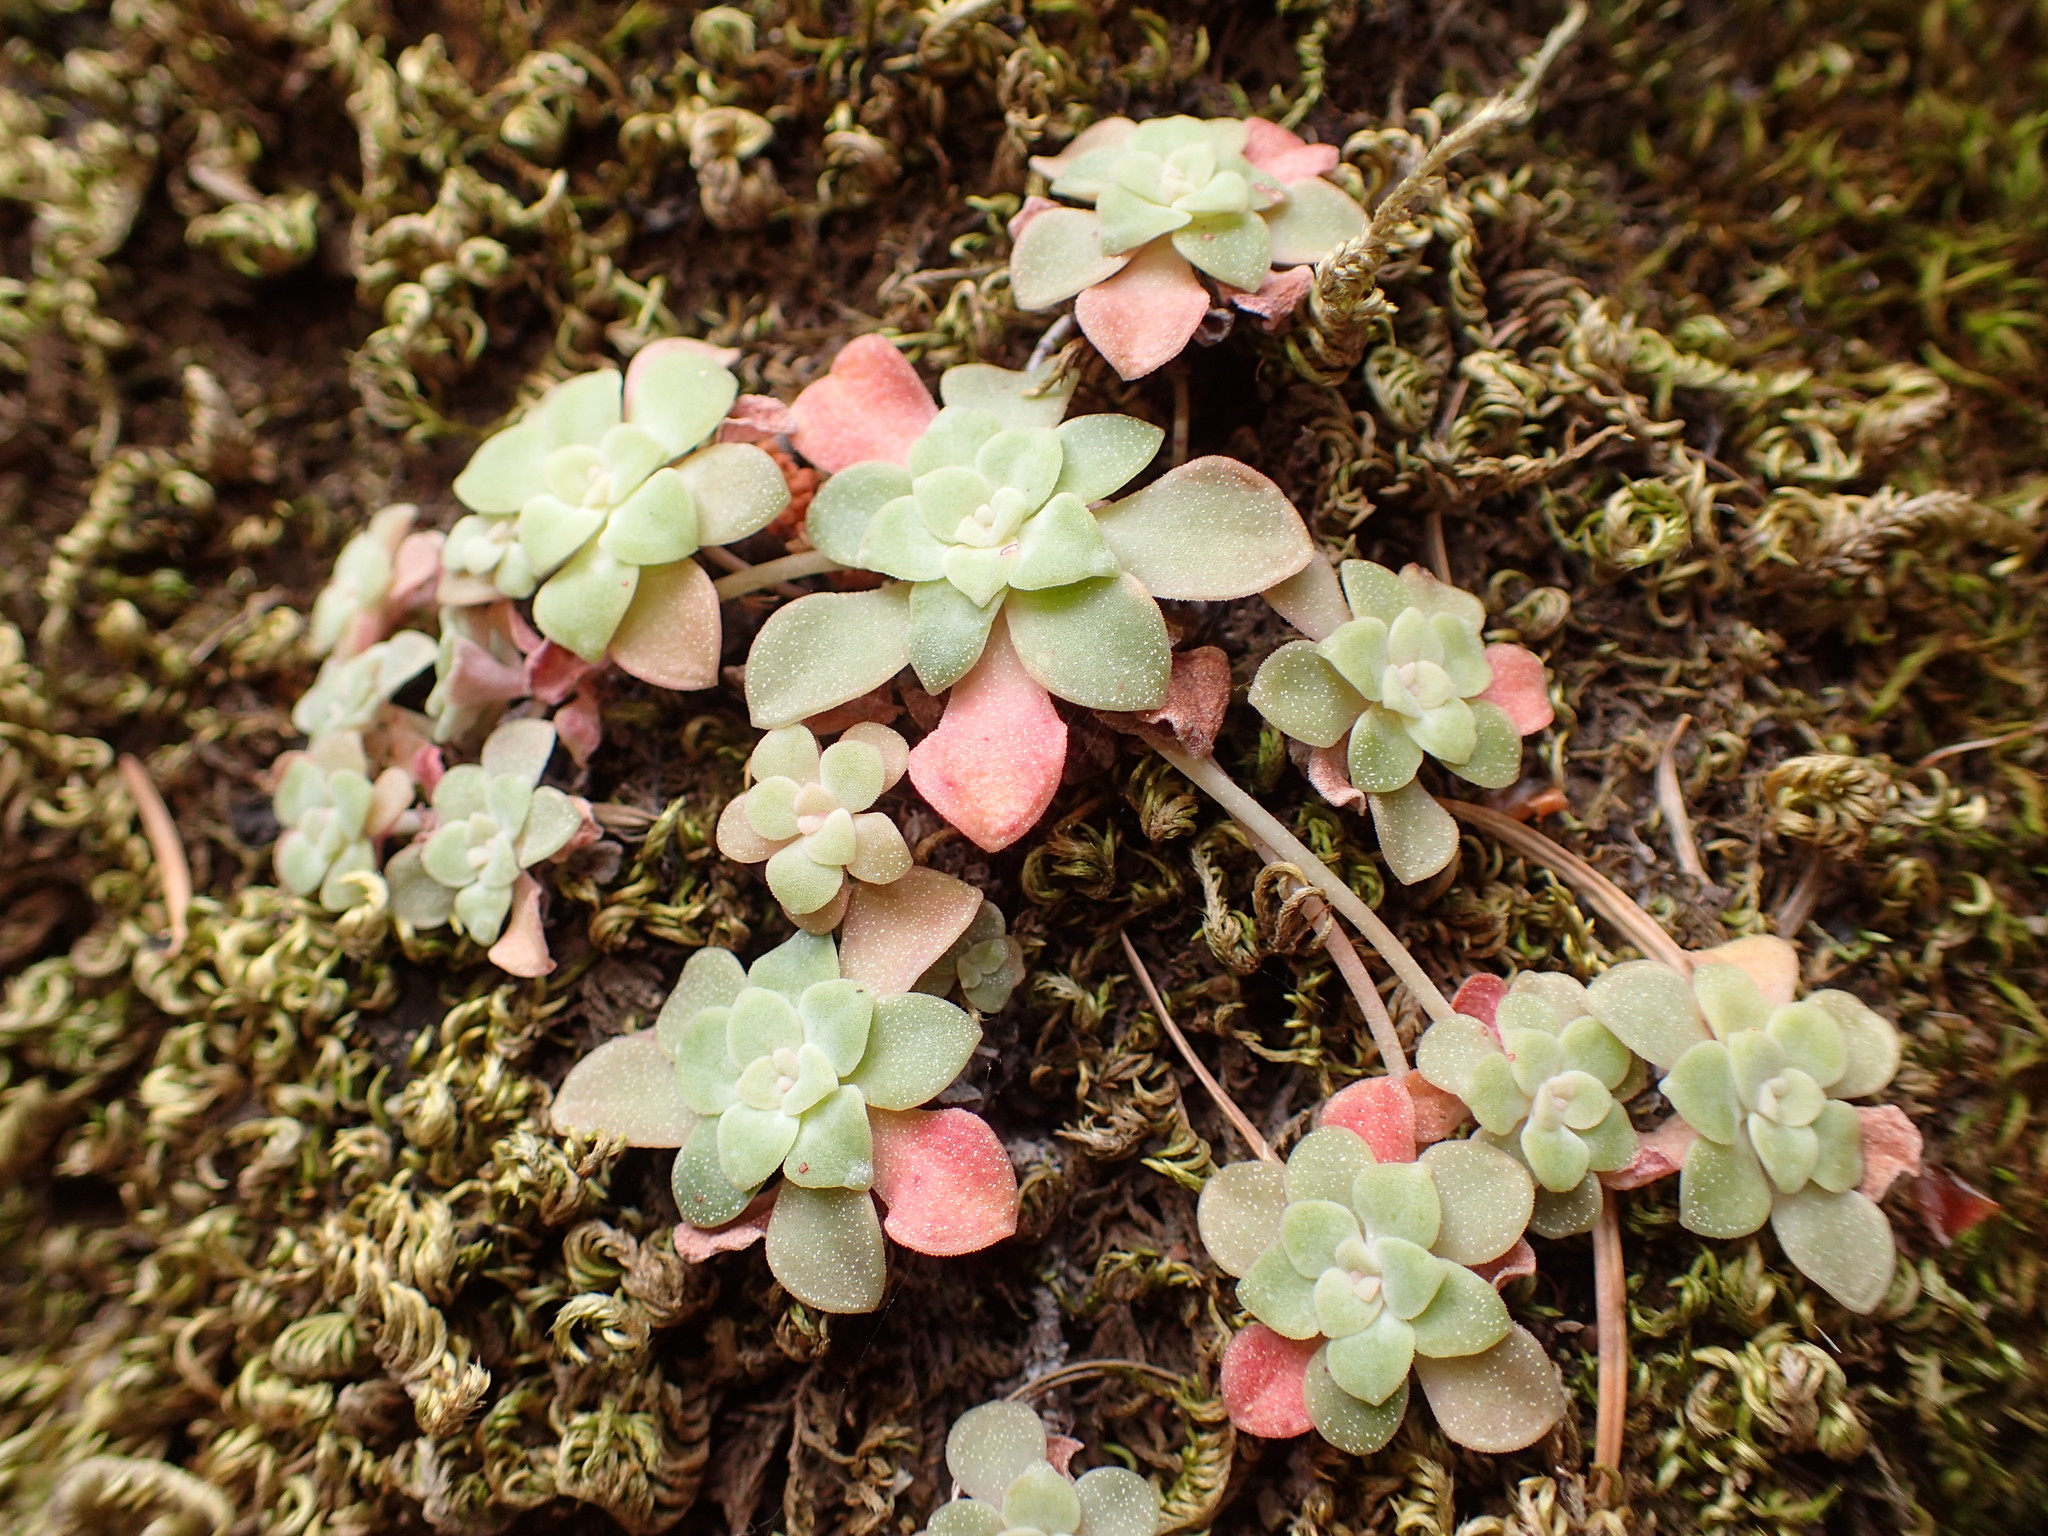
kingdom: Plantae
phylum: Tracheophyta
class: Magnoliopsida
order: Saxifragales
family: Crassulaceae
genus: Sedum
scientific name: Sedum spathulifolium
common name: Colorado stonecrop
